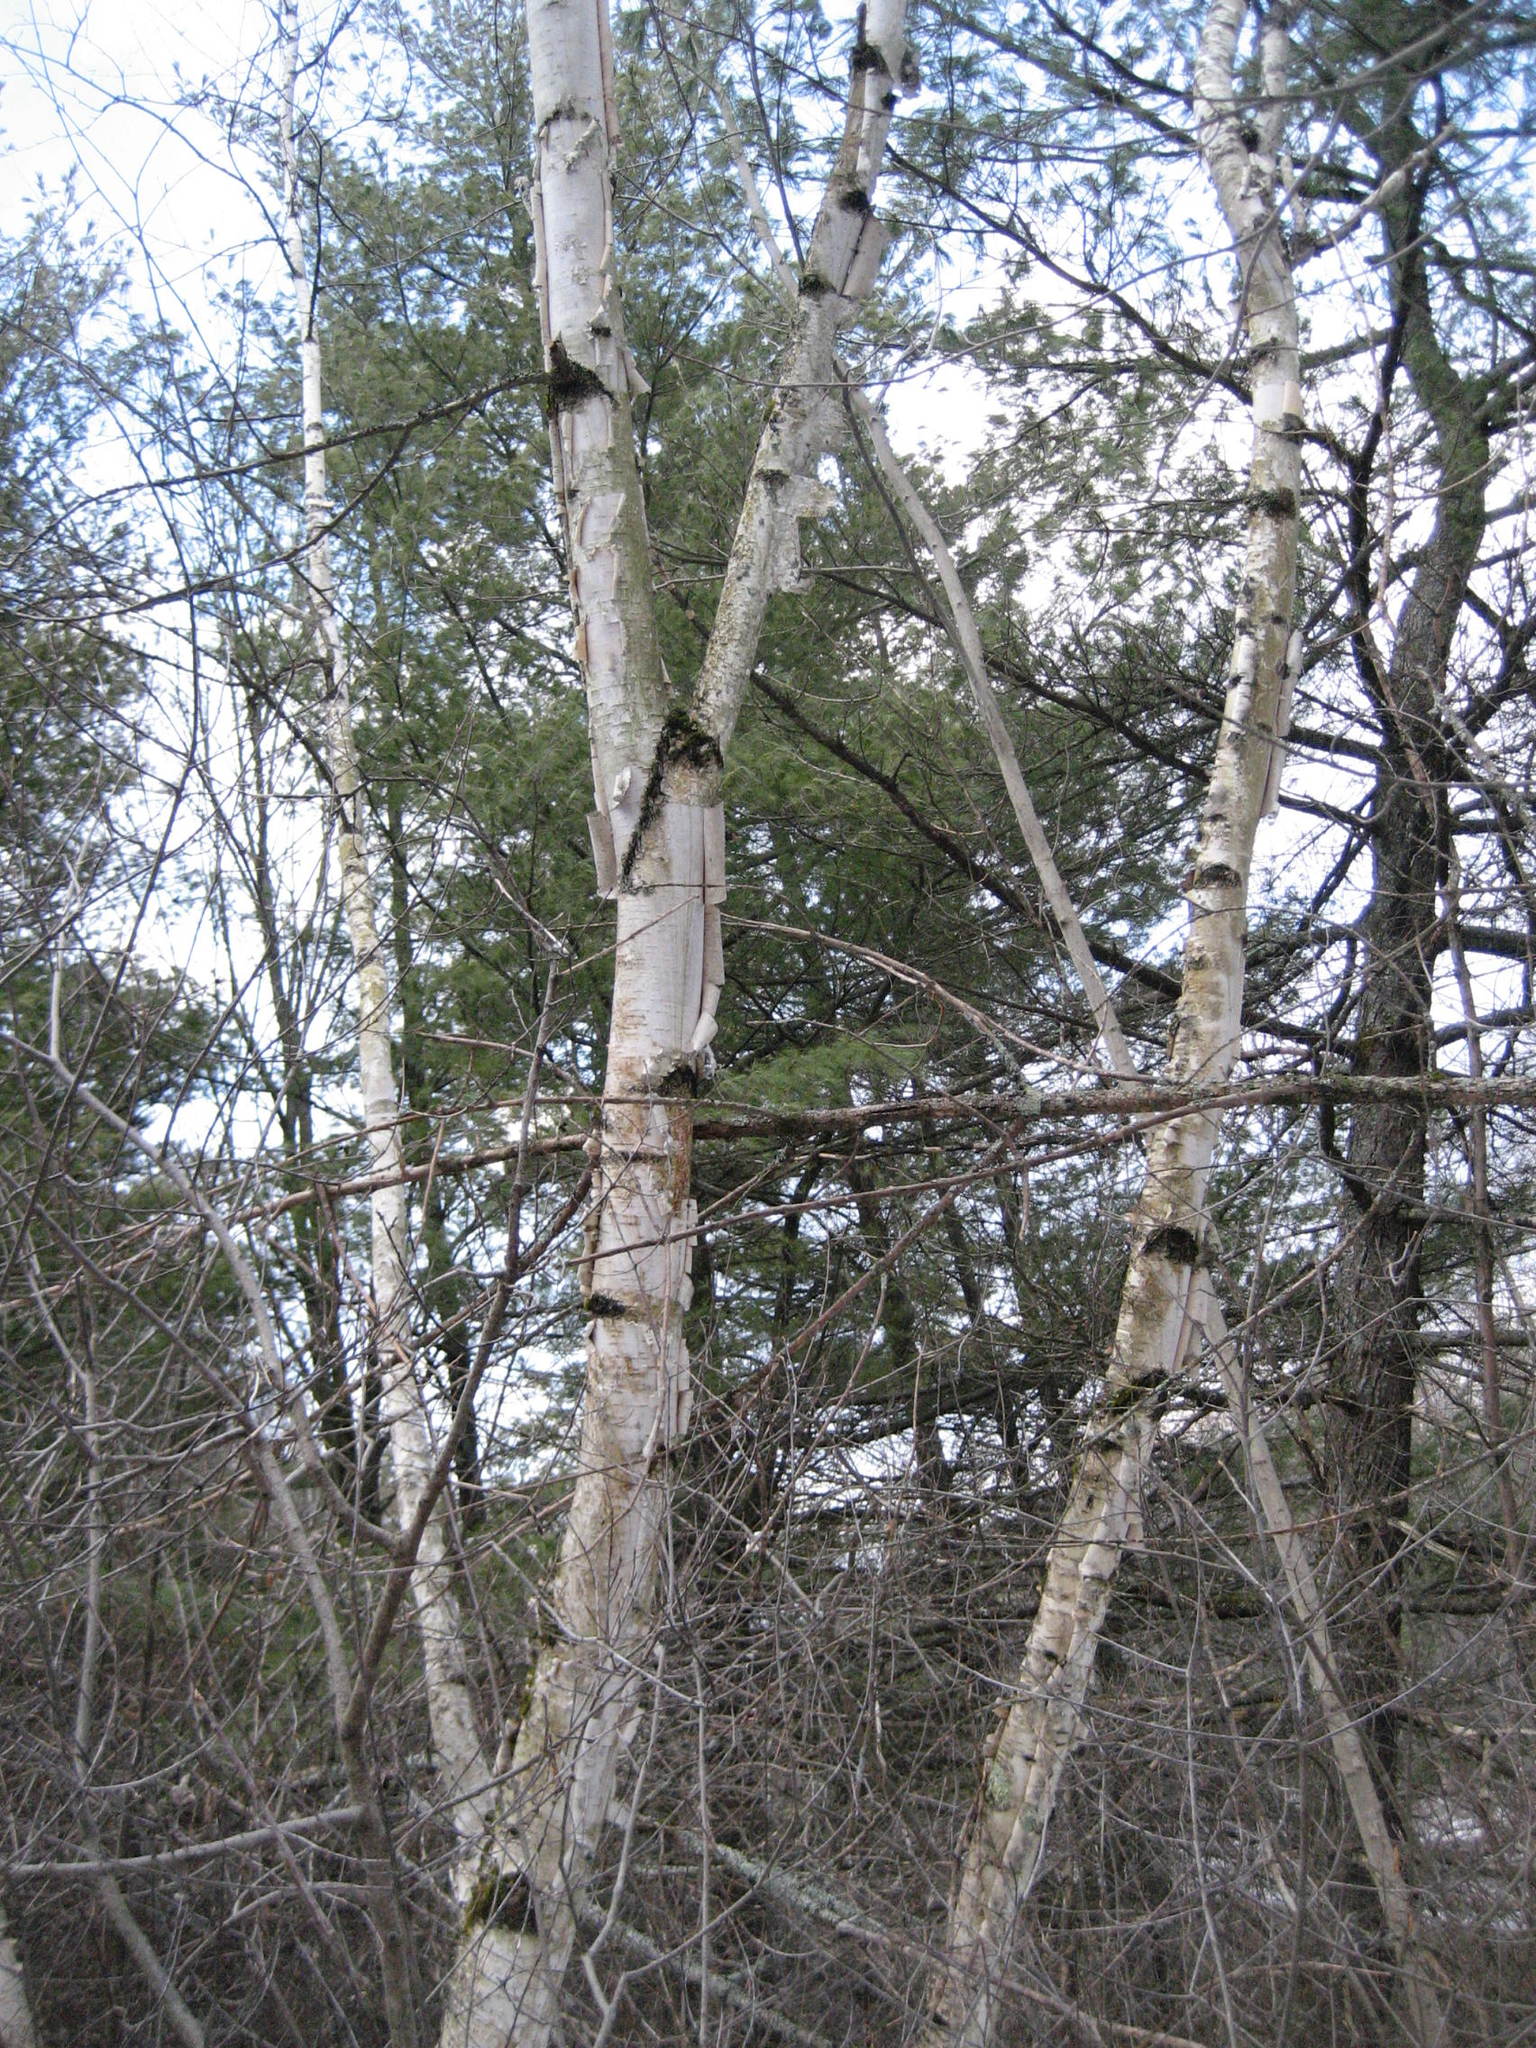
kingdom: Plantae
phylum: Tracheophyta
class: Magnoliopsida
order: Fagales
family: Betulaceae
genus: Betula
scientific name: Betula papyrifera
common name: Paper birch
